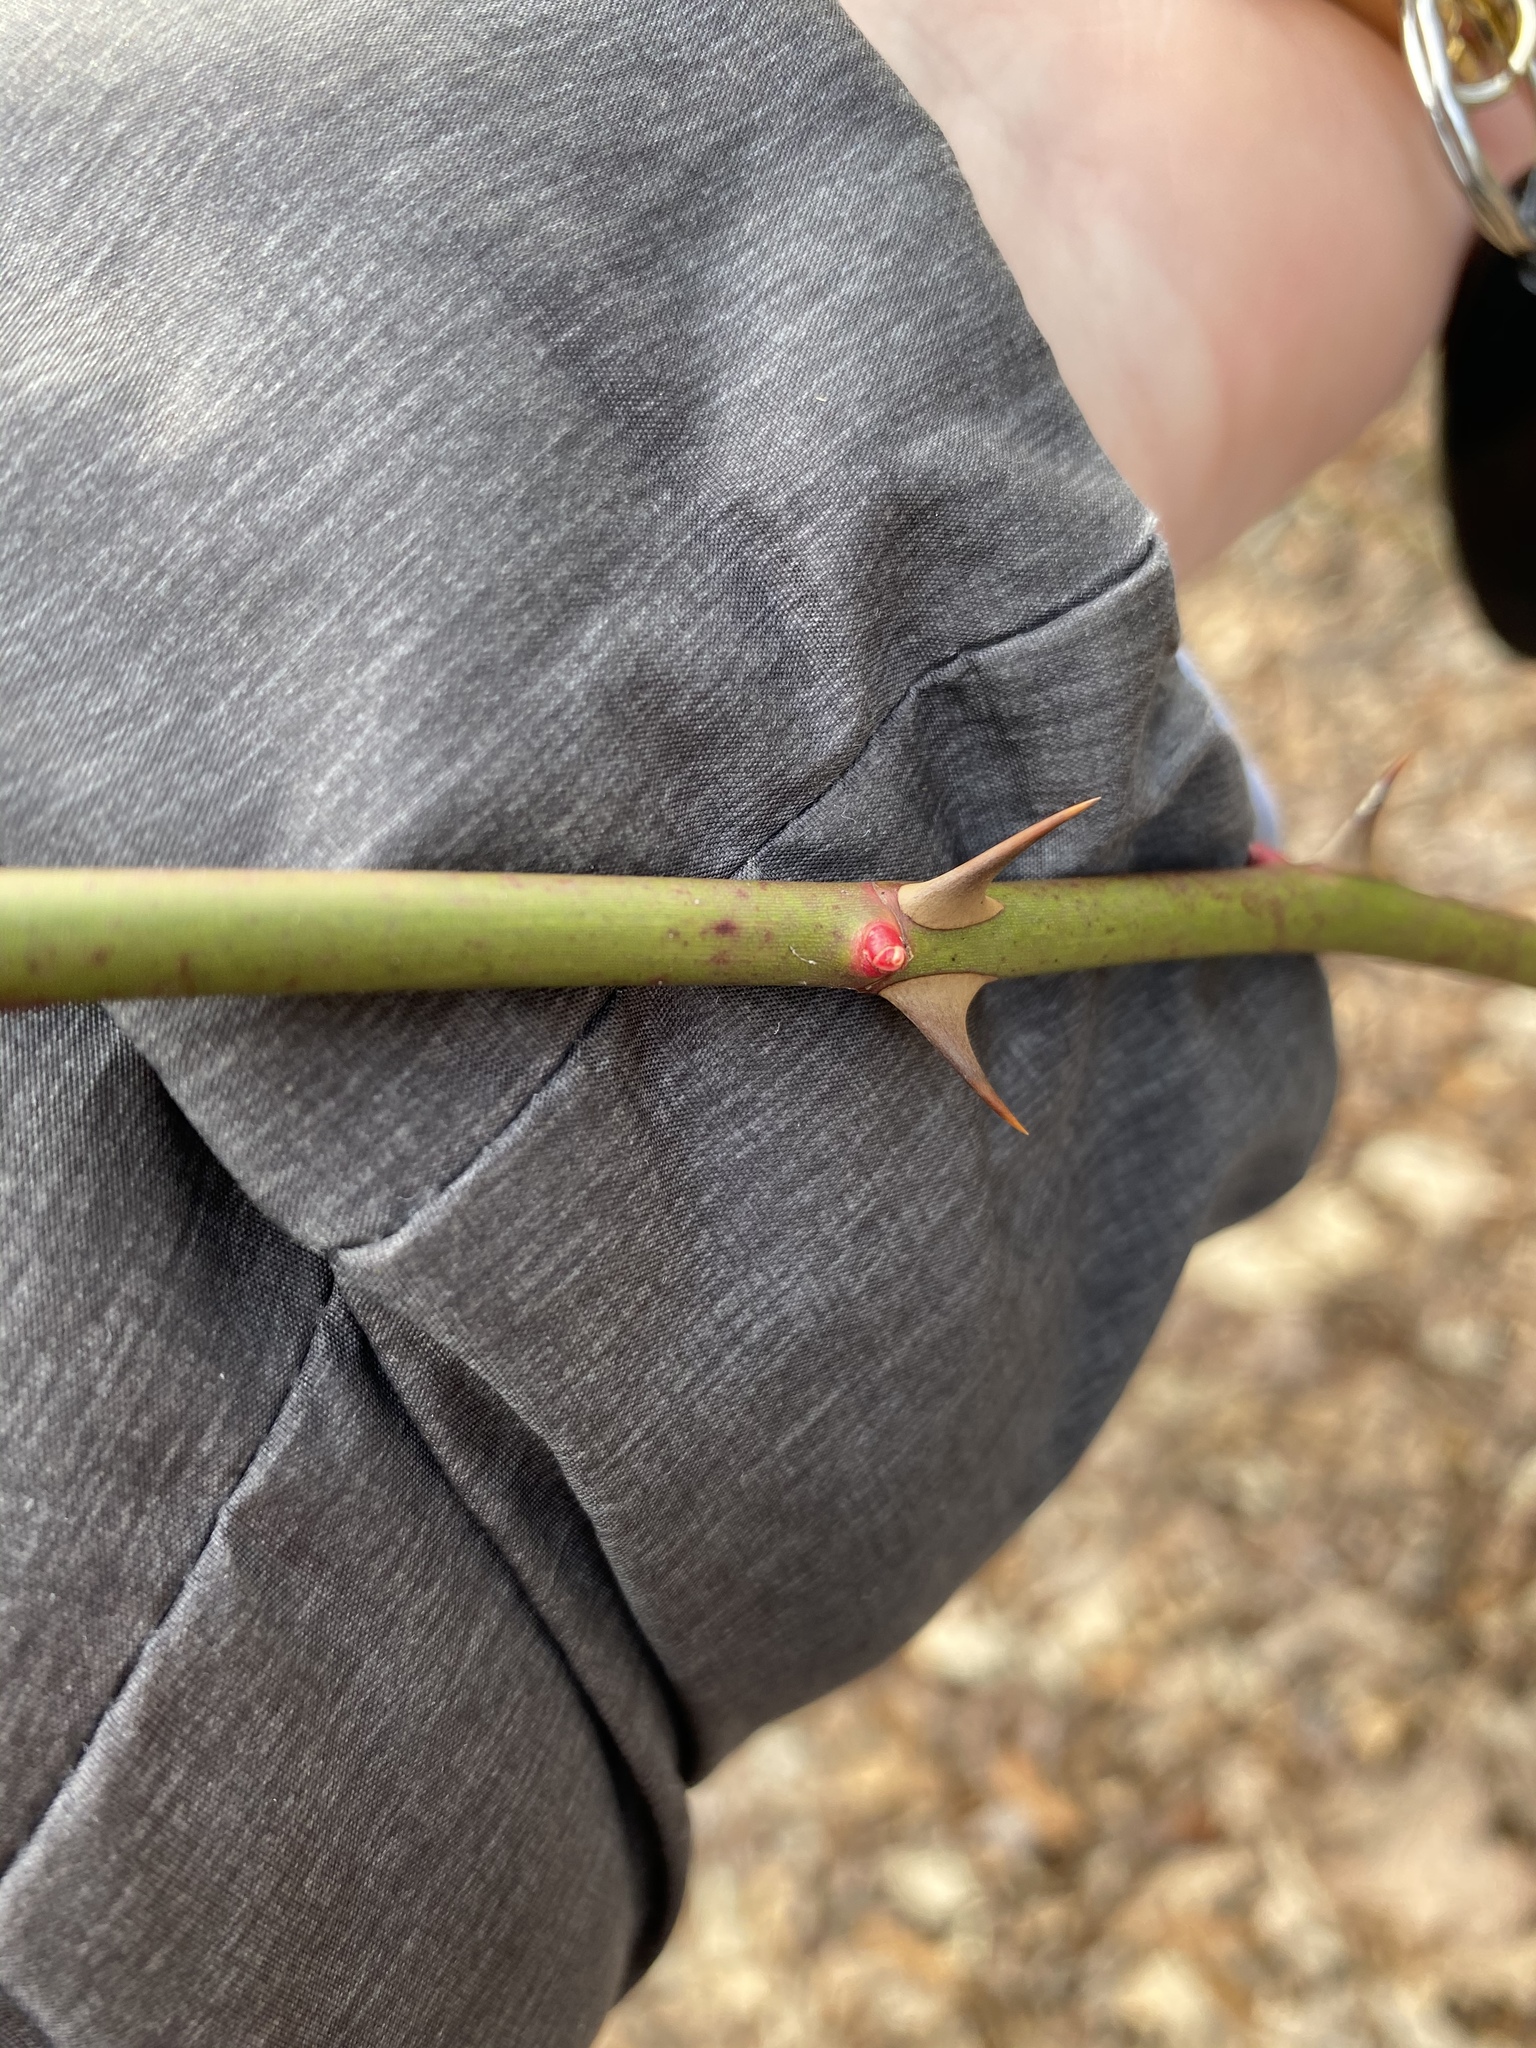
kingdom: Plantae
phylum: Tracheophyta
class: Magnoliopsida
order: Rosales
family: Rosaceae
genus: Rosa
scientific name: Rosa multiflora
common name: Multiflora rose
